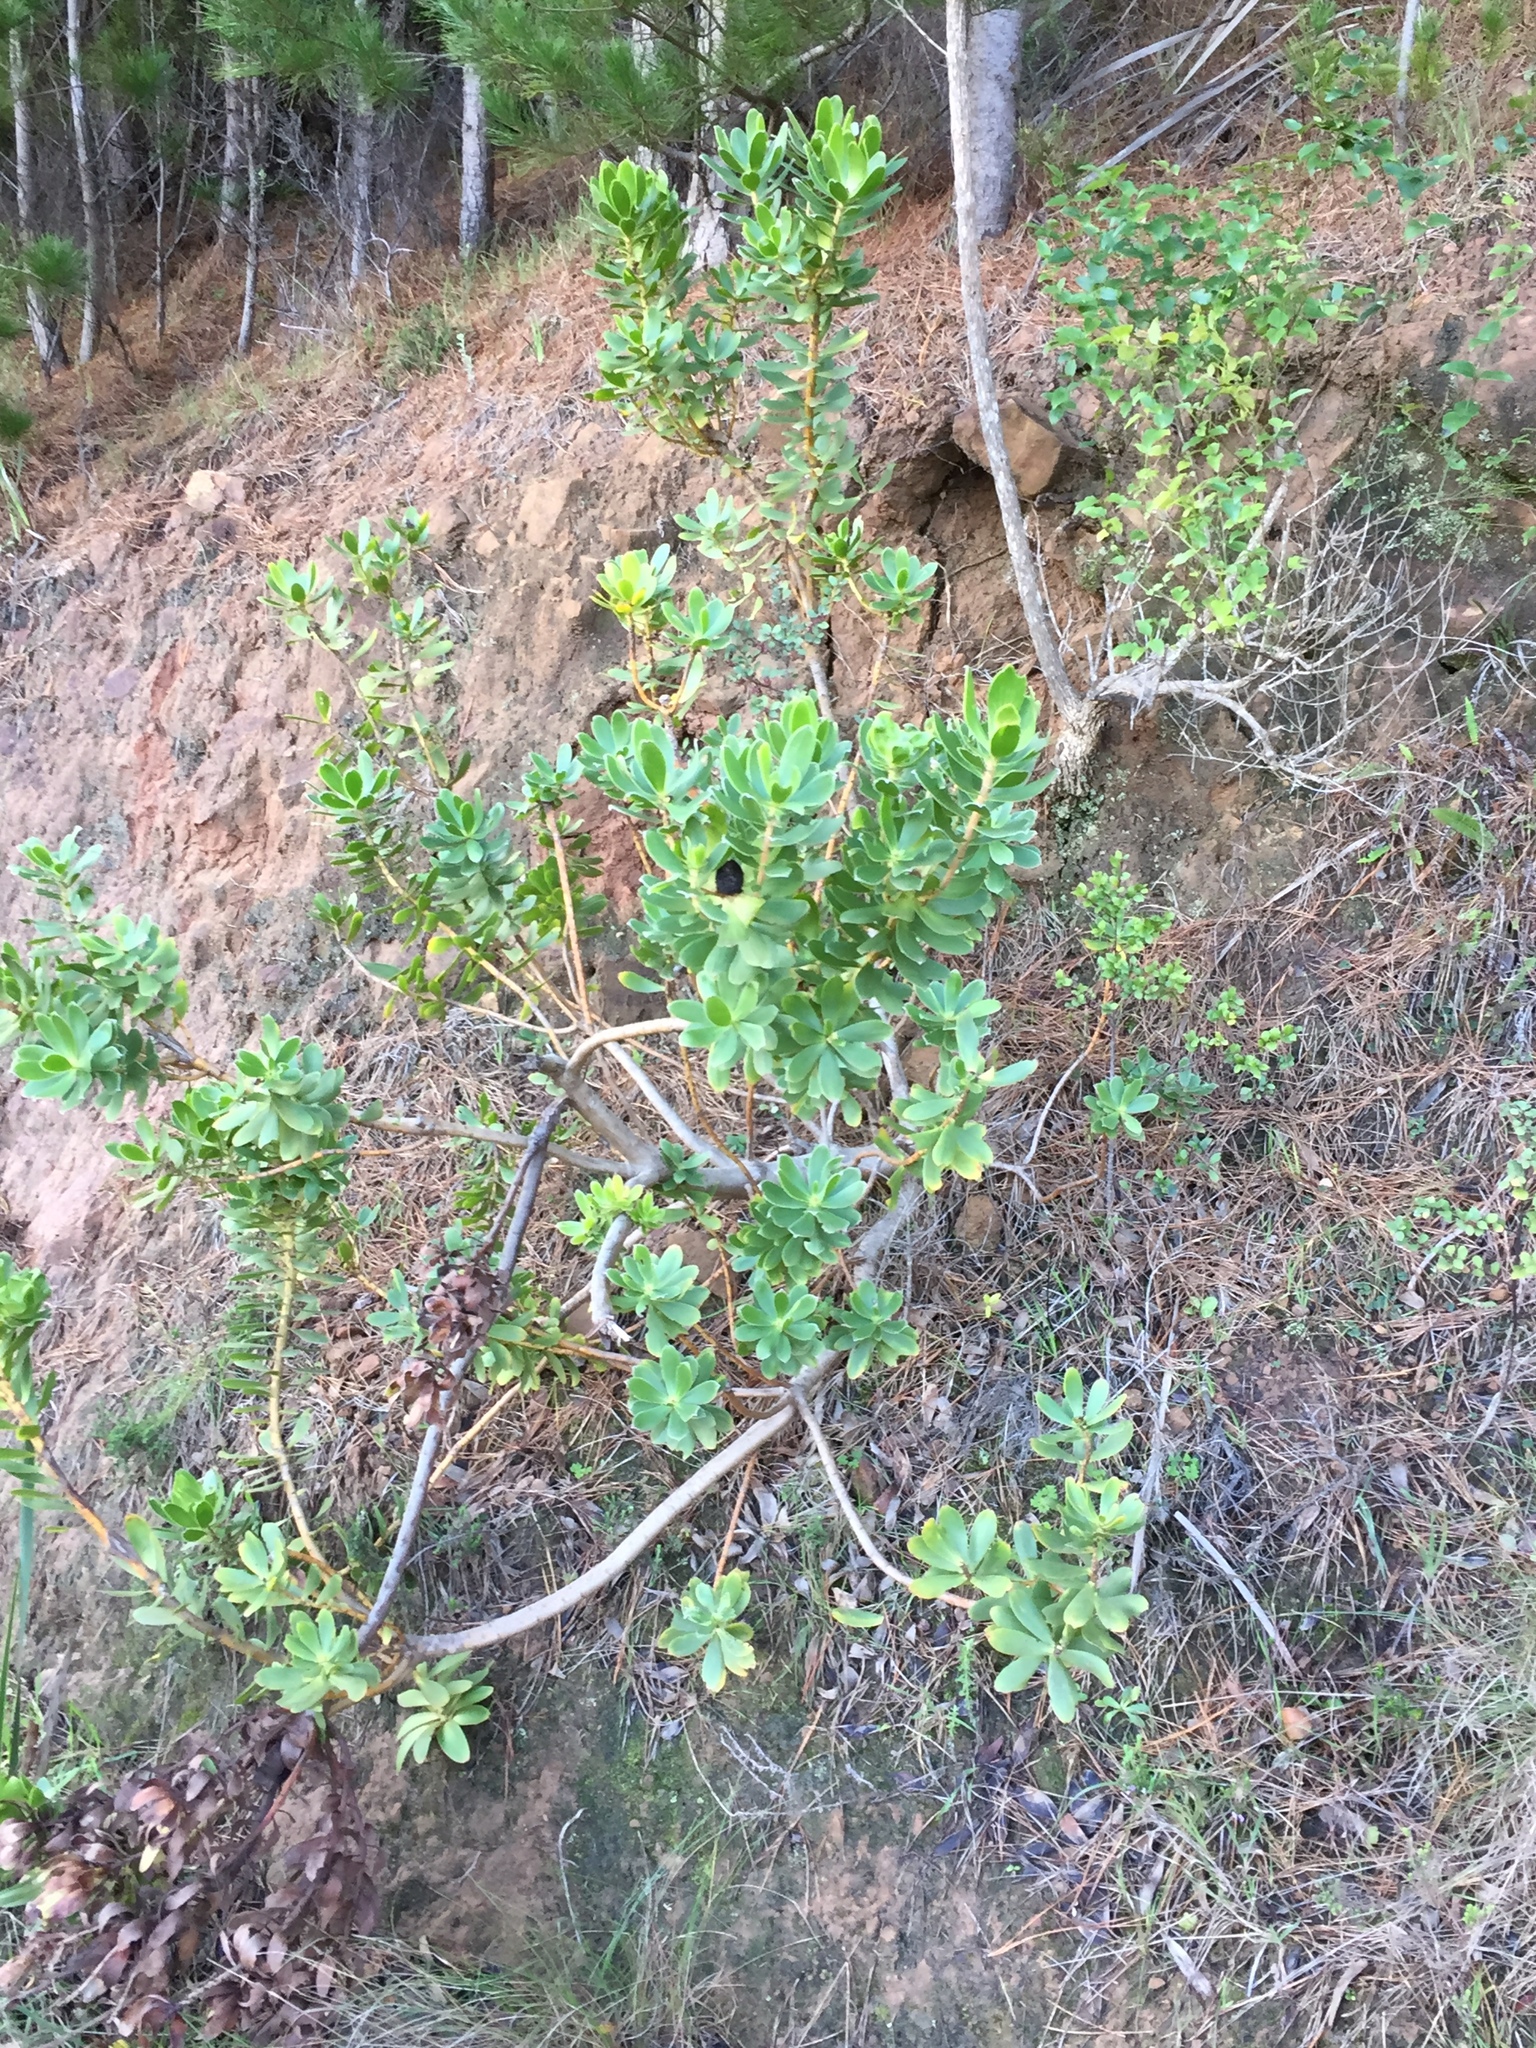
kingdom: Plantae
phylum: Tracheophyta
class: Magnoliopsida
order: Proteales
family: Proteaceae
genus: Leucadendron
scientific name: Leucadendron strobilinum
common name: Mountain rose
